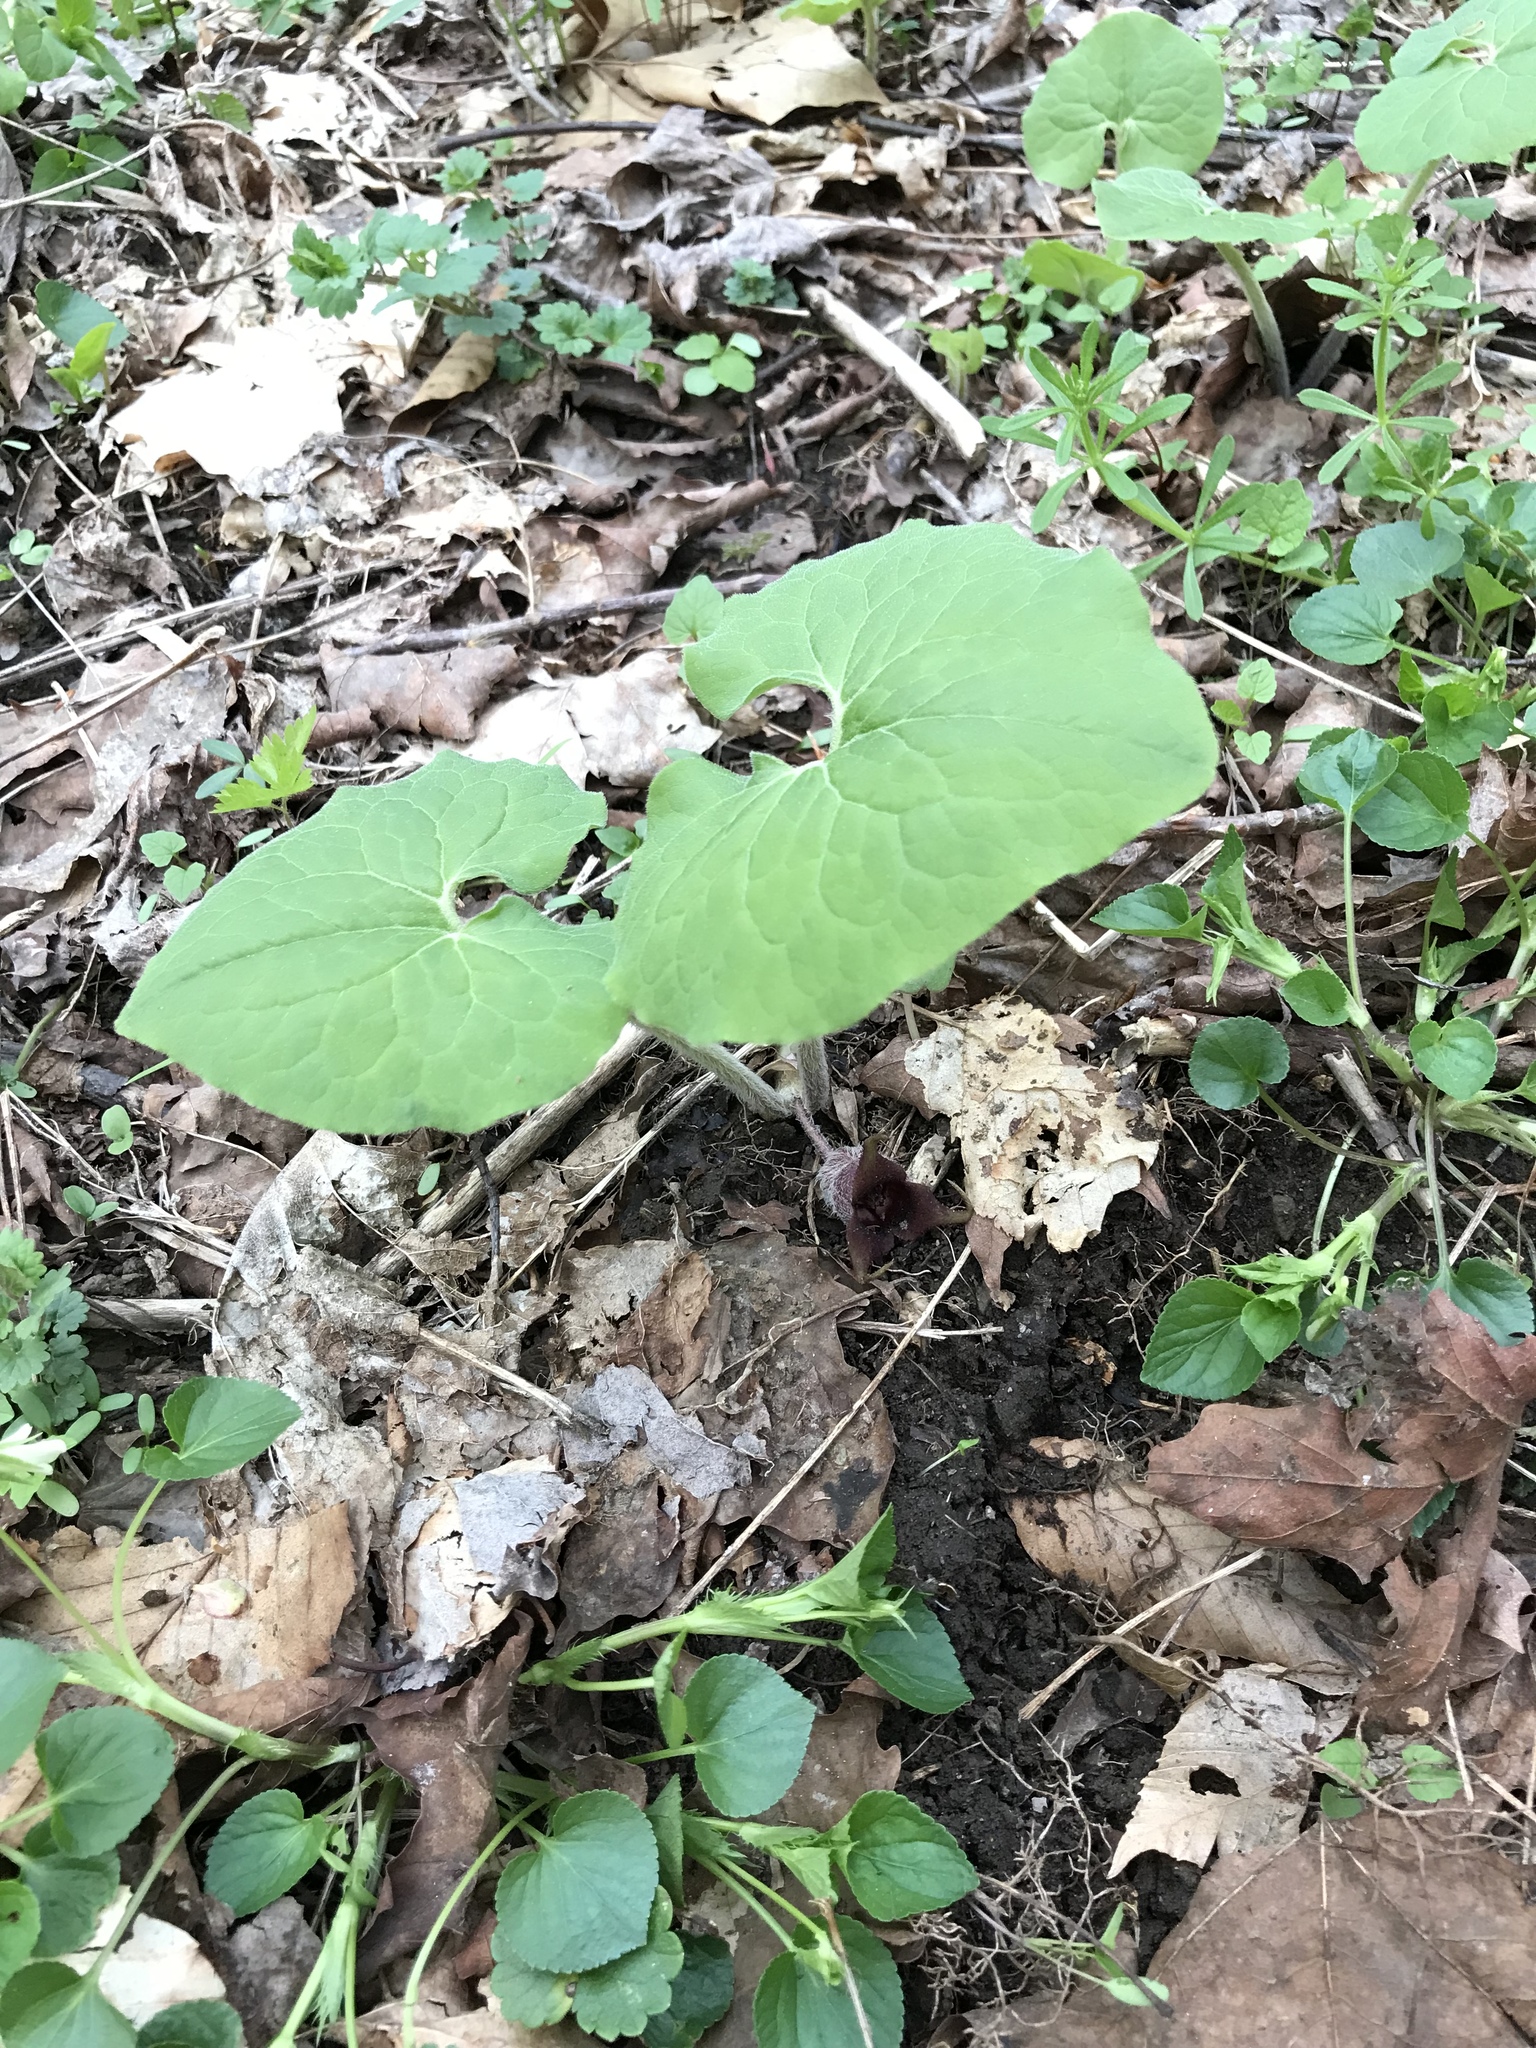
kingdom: Plantae
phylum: Tracheophyta
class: Magnoliopsida
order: Piperales
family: Aristolochiaceae
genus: Asarum
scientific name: Asarum canadense
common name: Wild ginger
